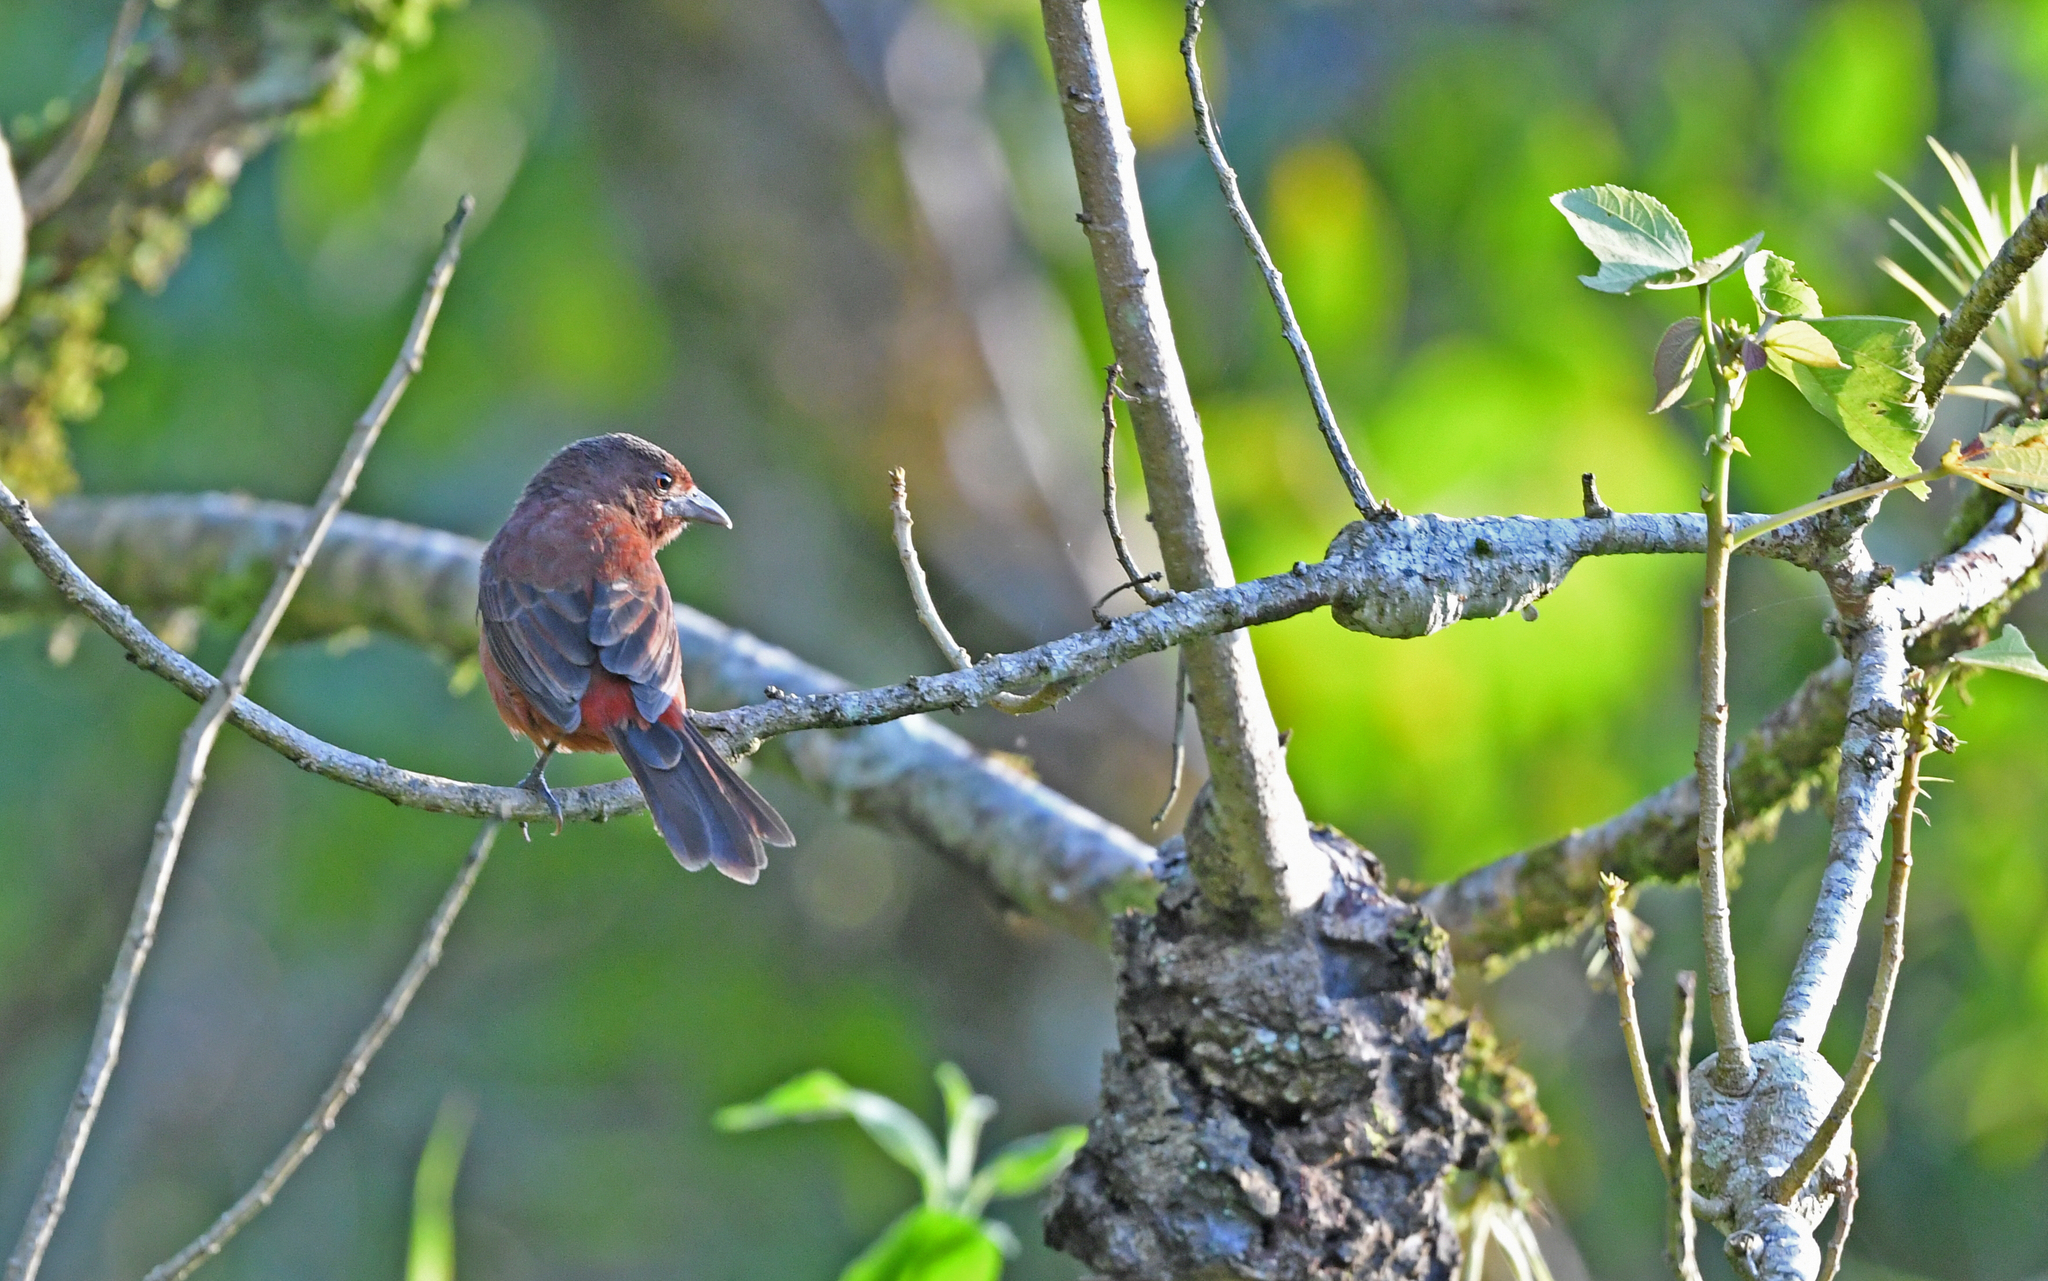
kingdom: Animalia
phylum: Chordata
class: Aves
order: Passeriformes
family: Thraupidae
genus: Ramphocelus
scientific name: Ramphocelus carbo
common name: Silver-beaked tanager
